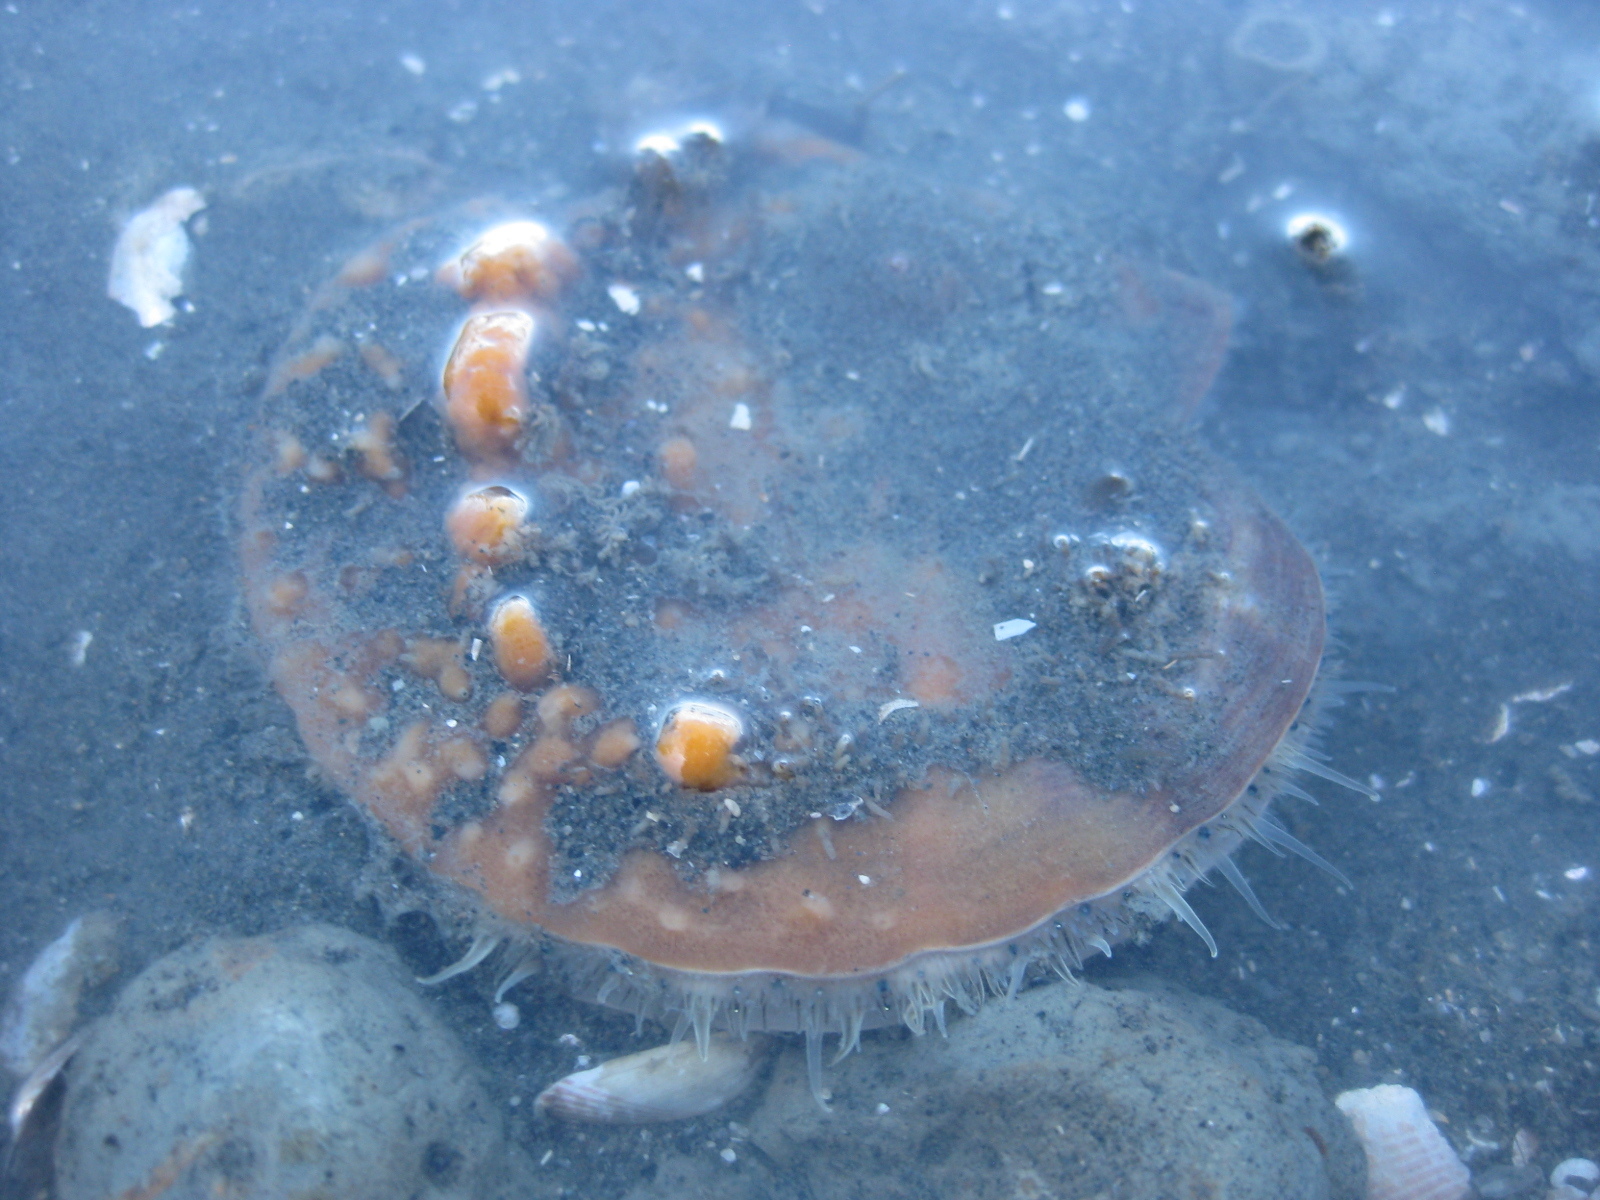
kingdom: Animalia
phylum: Mollusca
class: Bivalvia
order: Pectinida
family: Pectinidae
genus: Pecten
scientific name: Pecten novaezelandiae
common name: New zealand scallop
